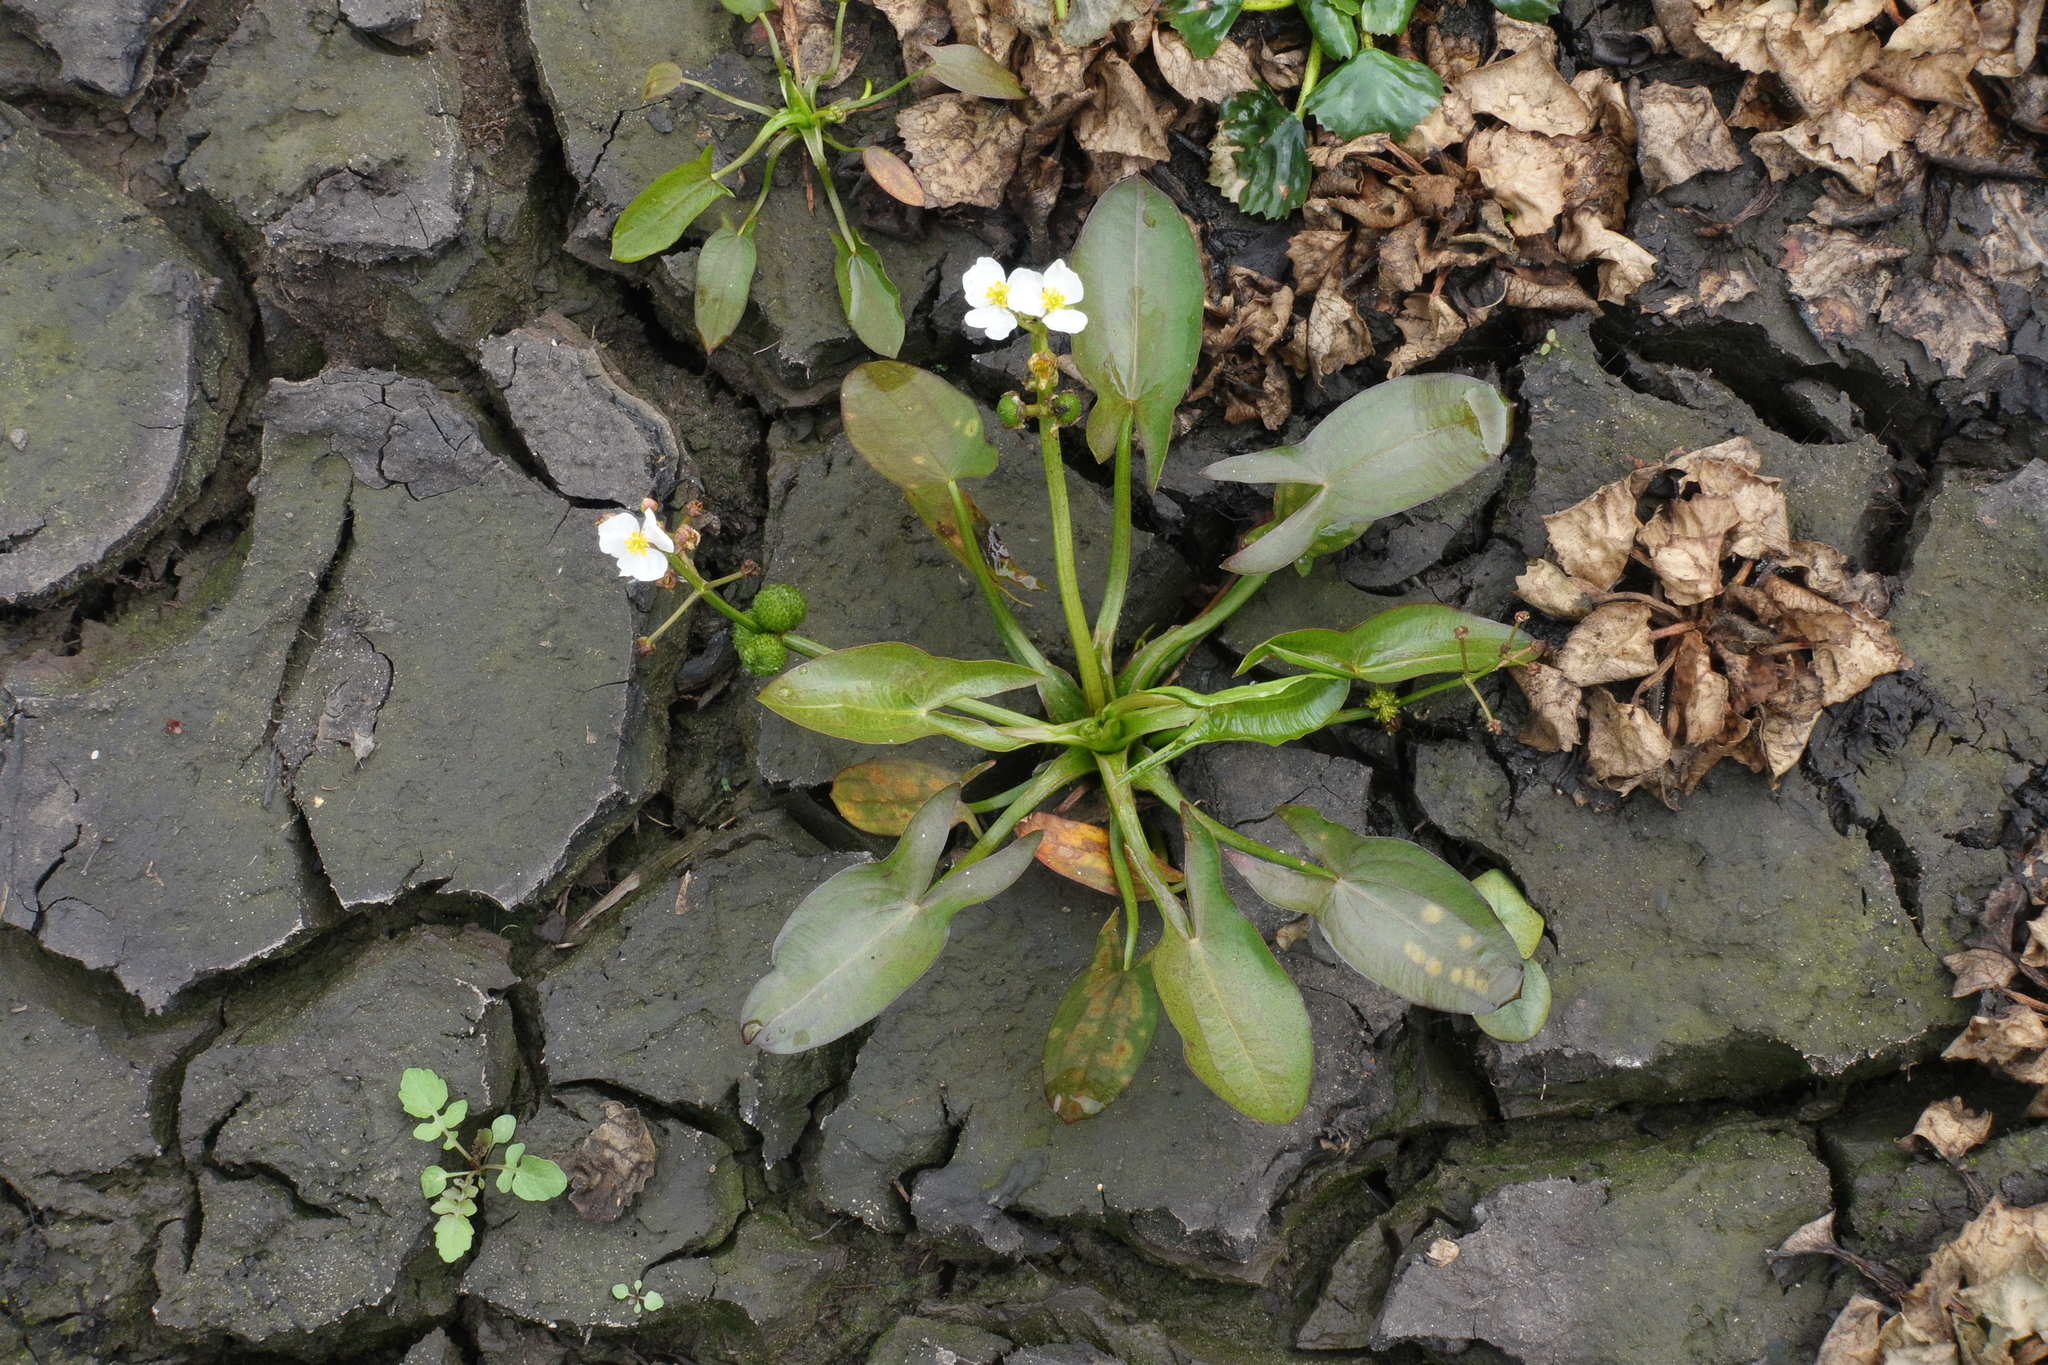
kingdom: Plantae
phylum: Tracheophyta
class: Liliopsida
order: Alismatales
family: Alismataceae
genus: Sagittaria
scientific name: Sagittaria natans
